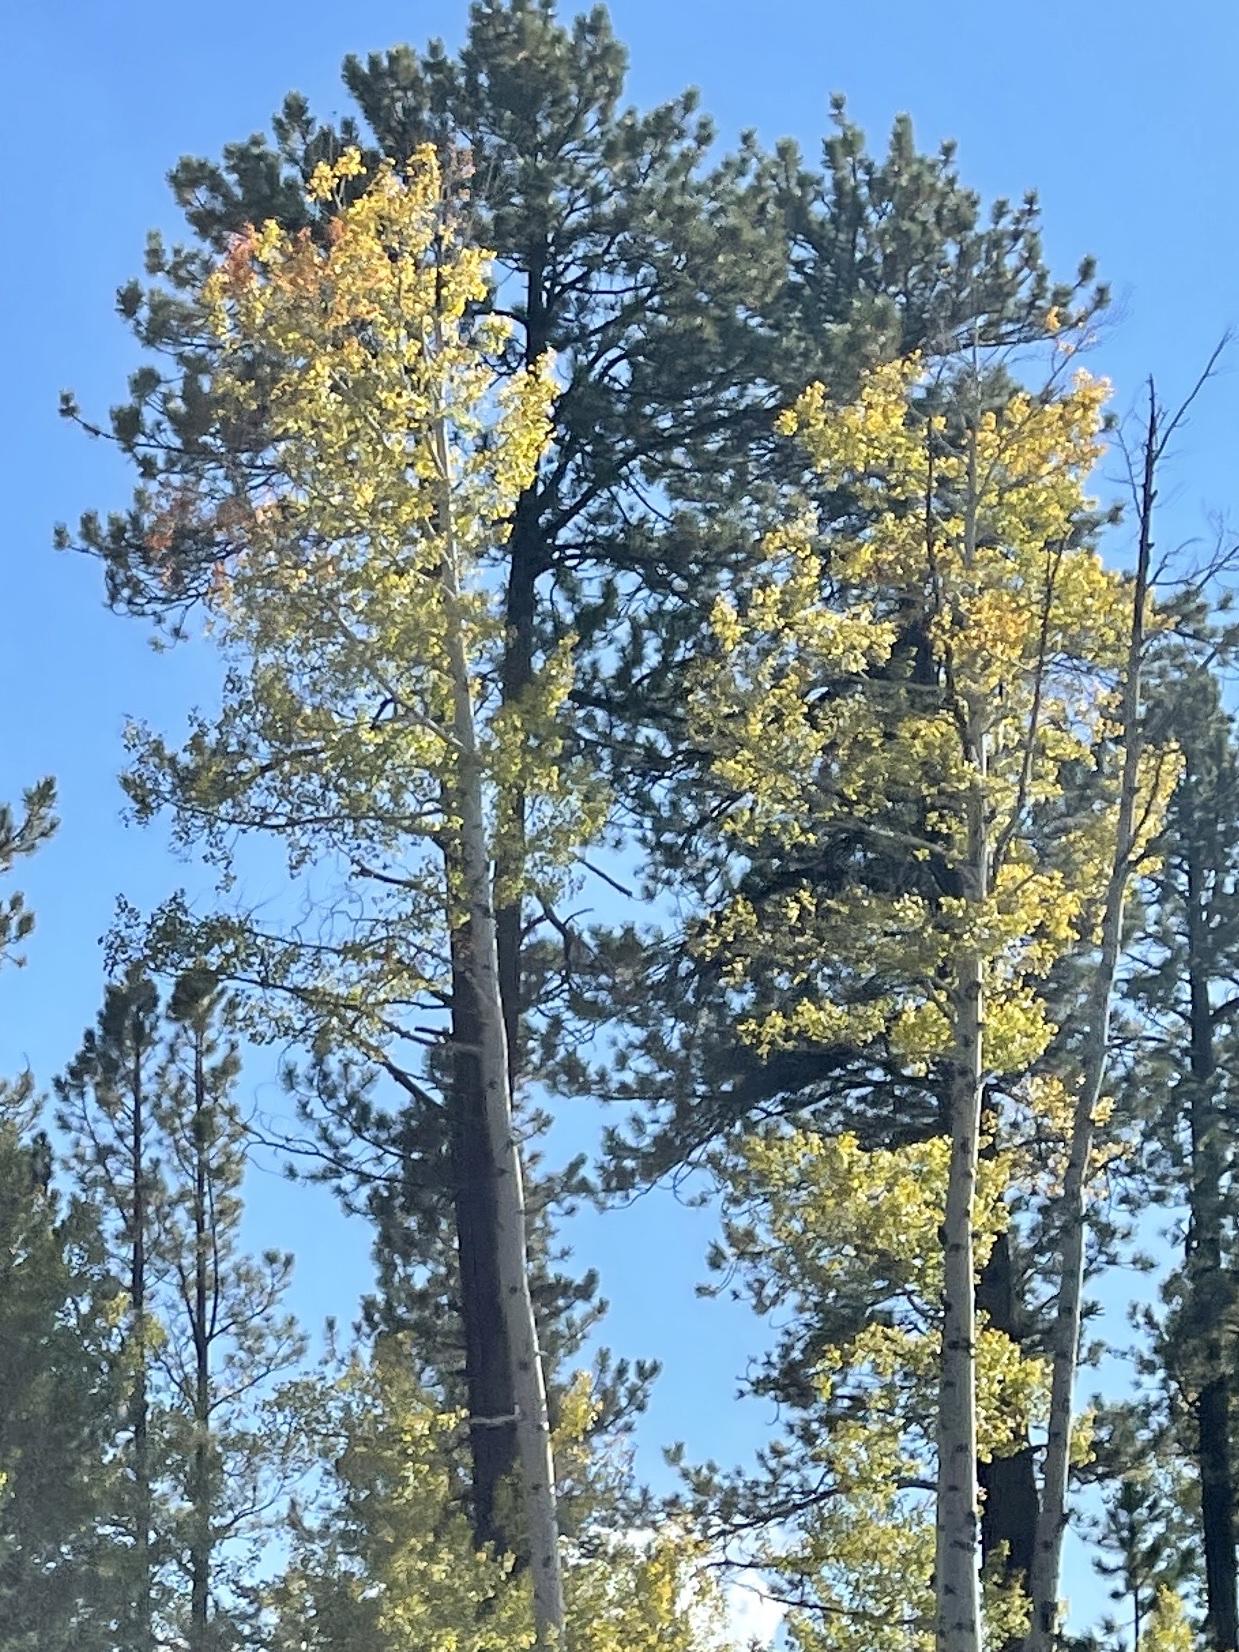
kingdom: Plantae
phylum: Tracheophyta
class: Magnoliopsida
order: Malpighiales
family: Salicaceae
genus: Populus
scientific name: Populus tremuloides
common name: Quaking aspen
